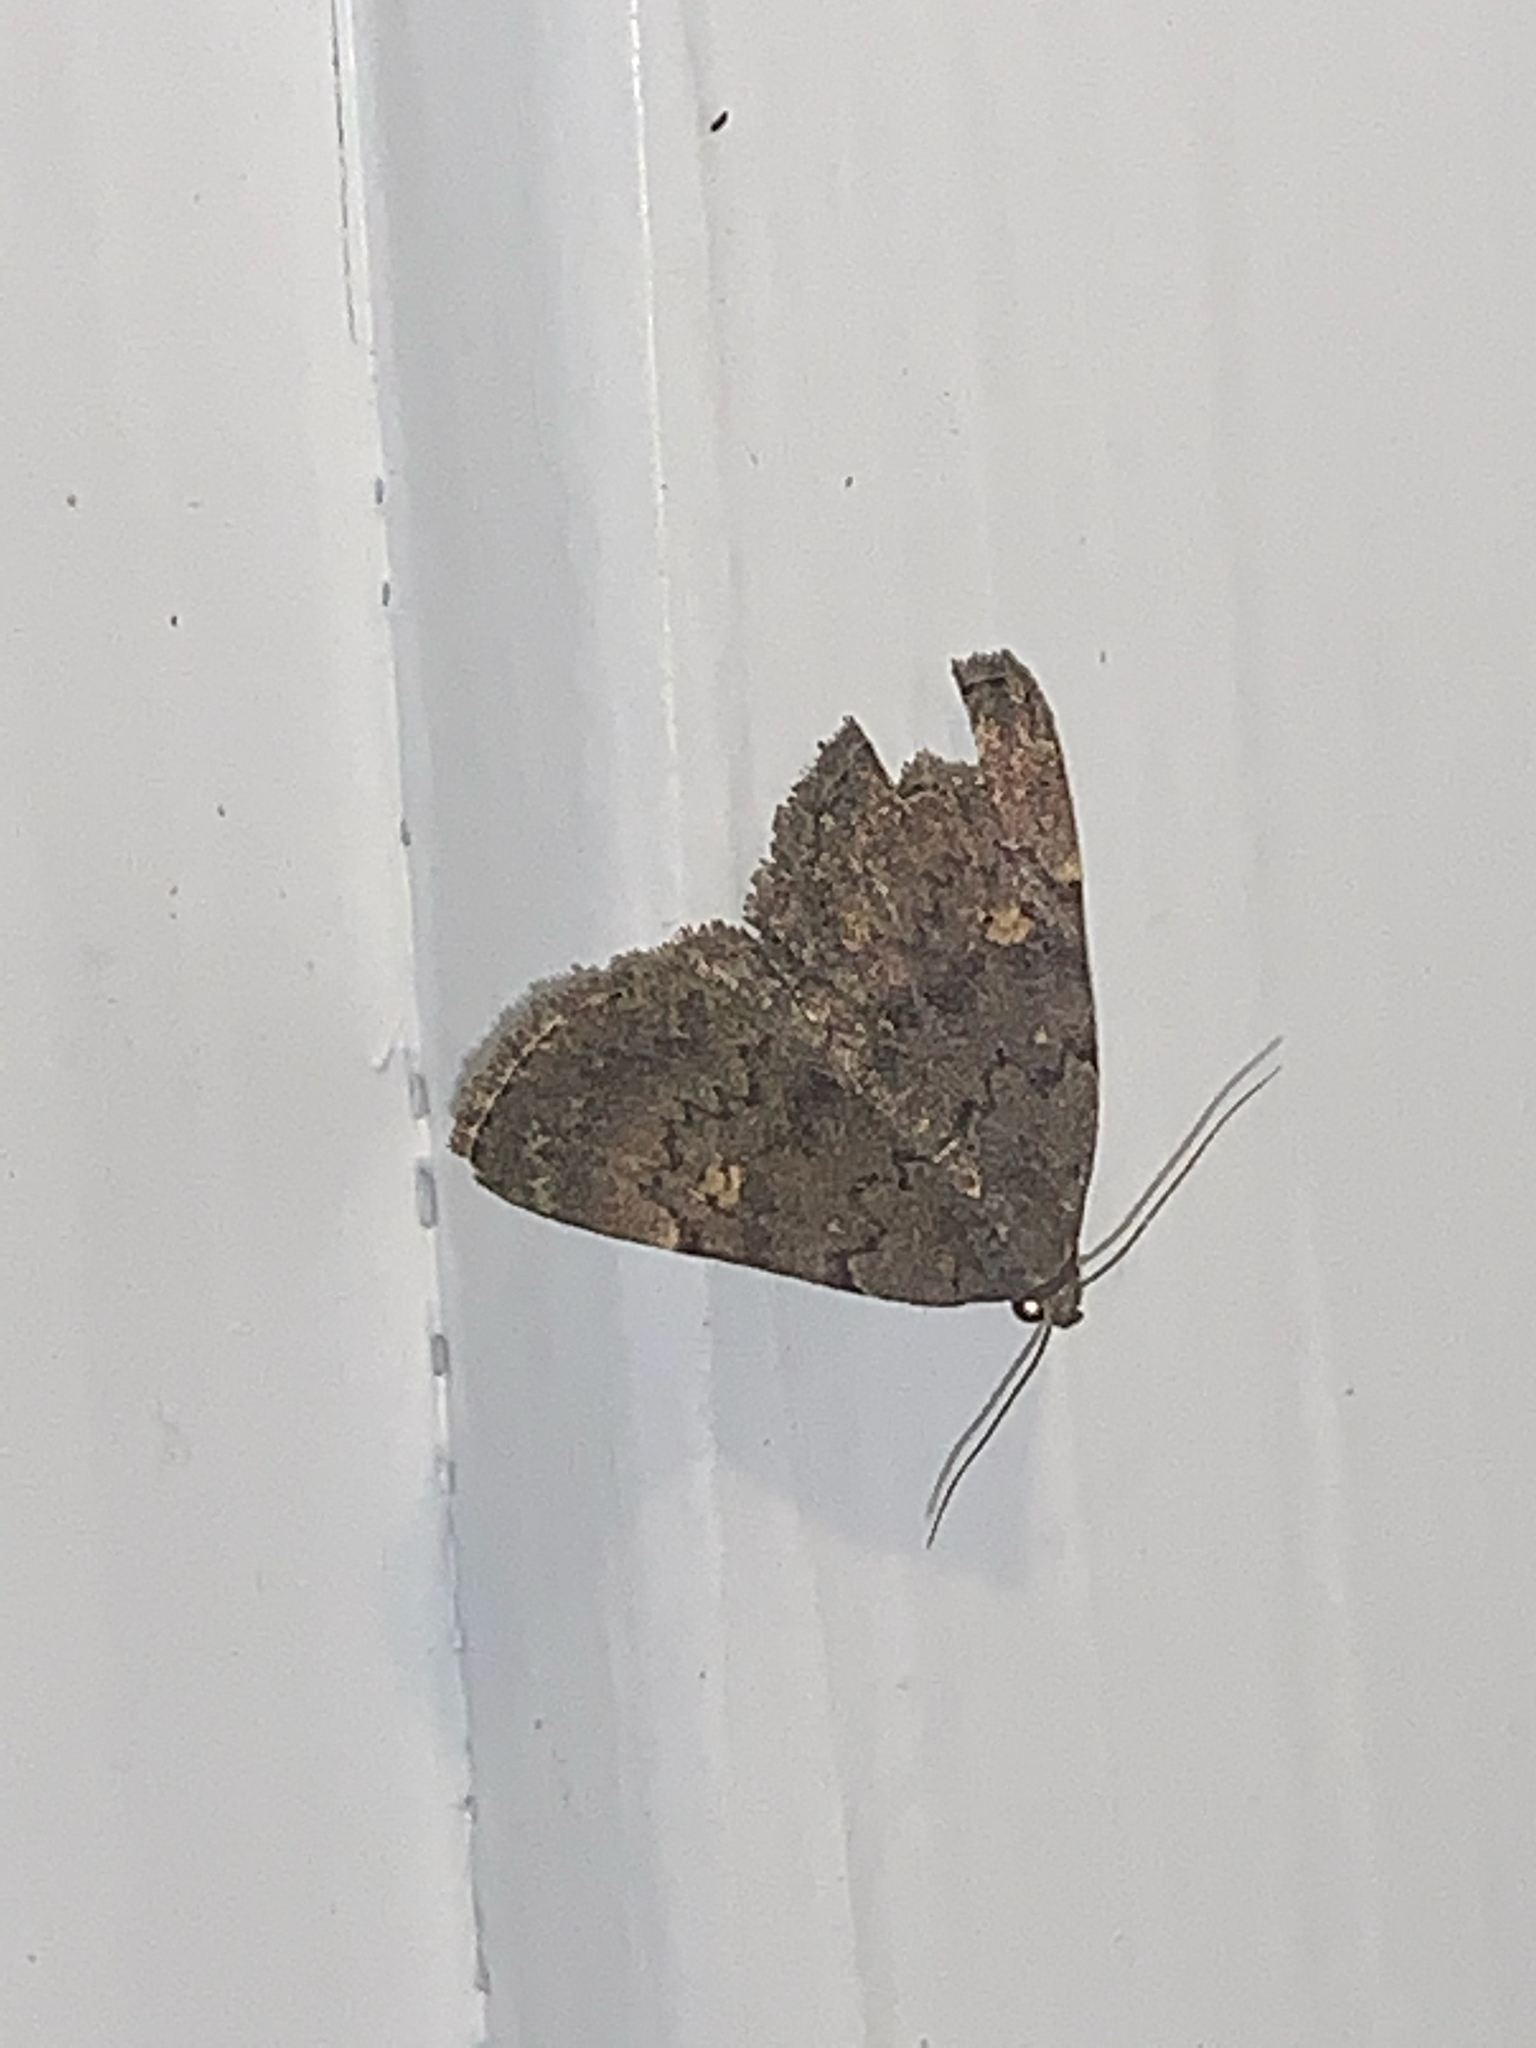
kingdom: Animalia
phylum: Arthropoda
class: Insecta
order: Lepidoptera
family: Erebidae
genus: Idia
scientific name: Idia aemula
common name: Common idia moth
